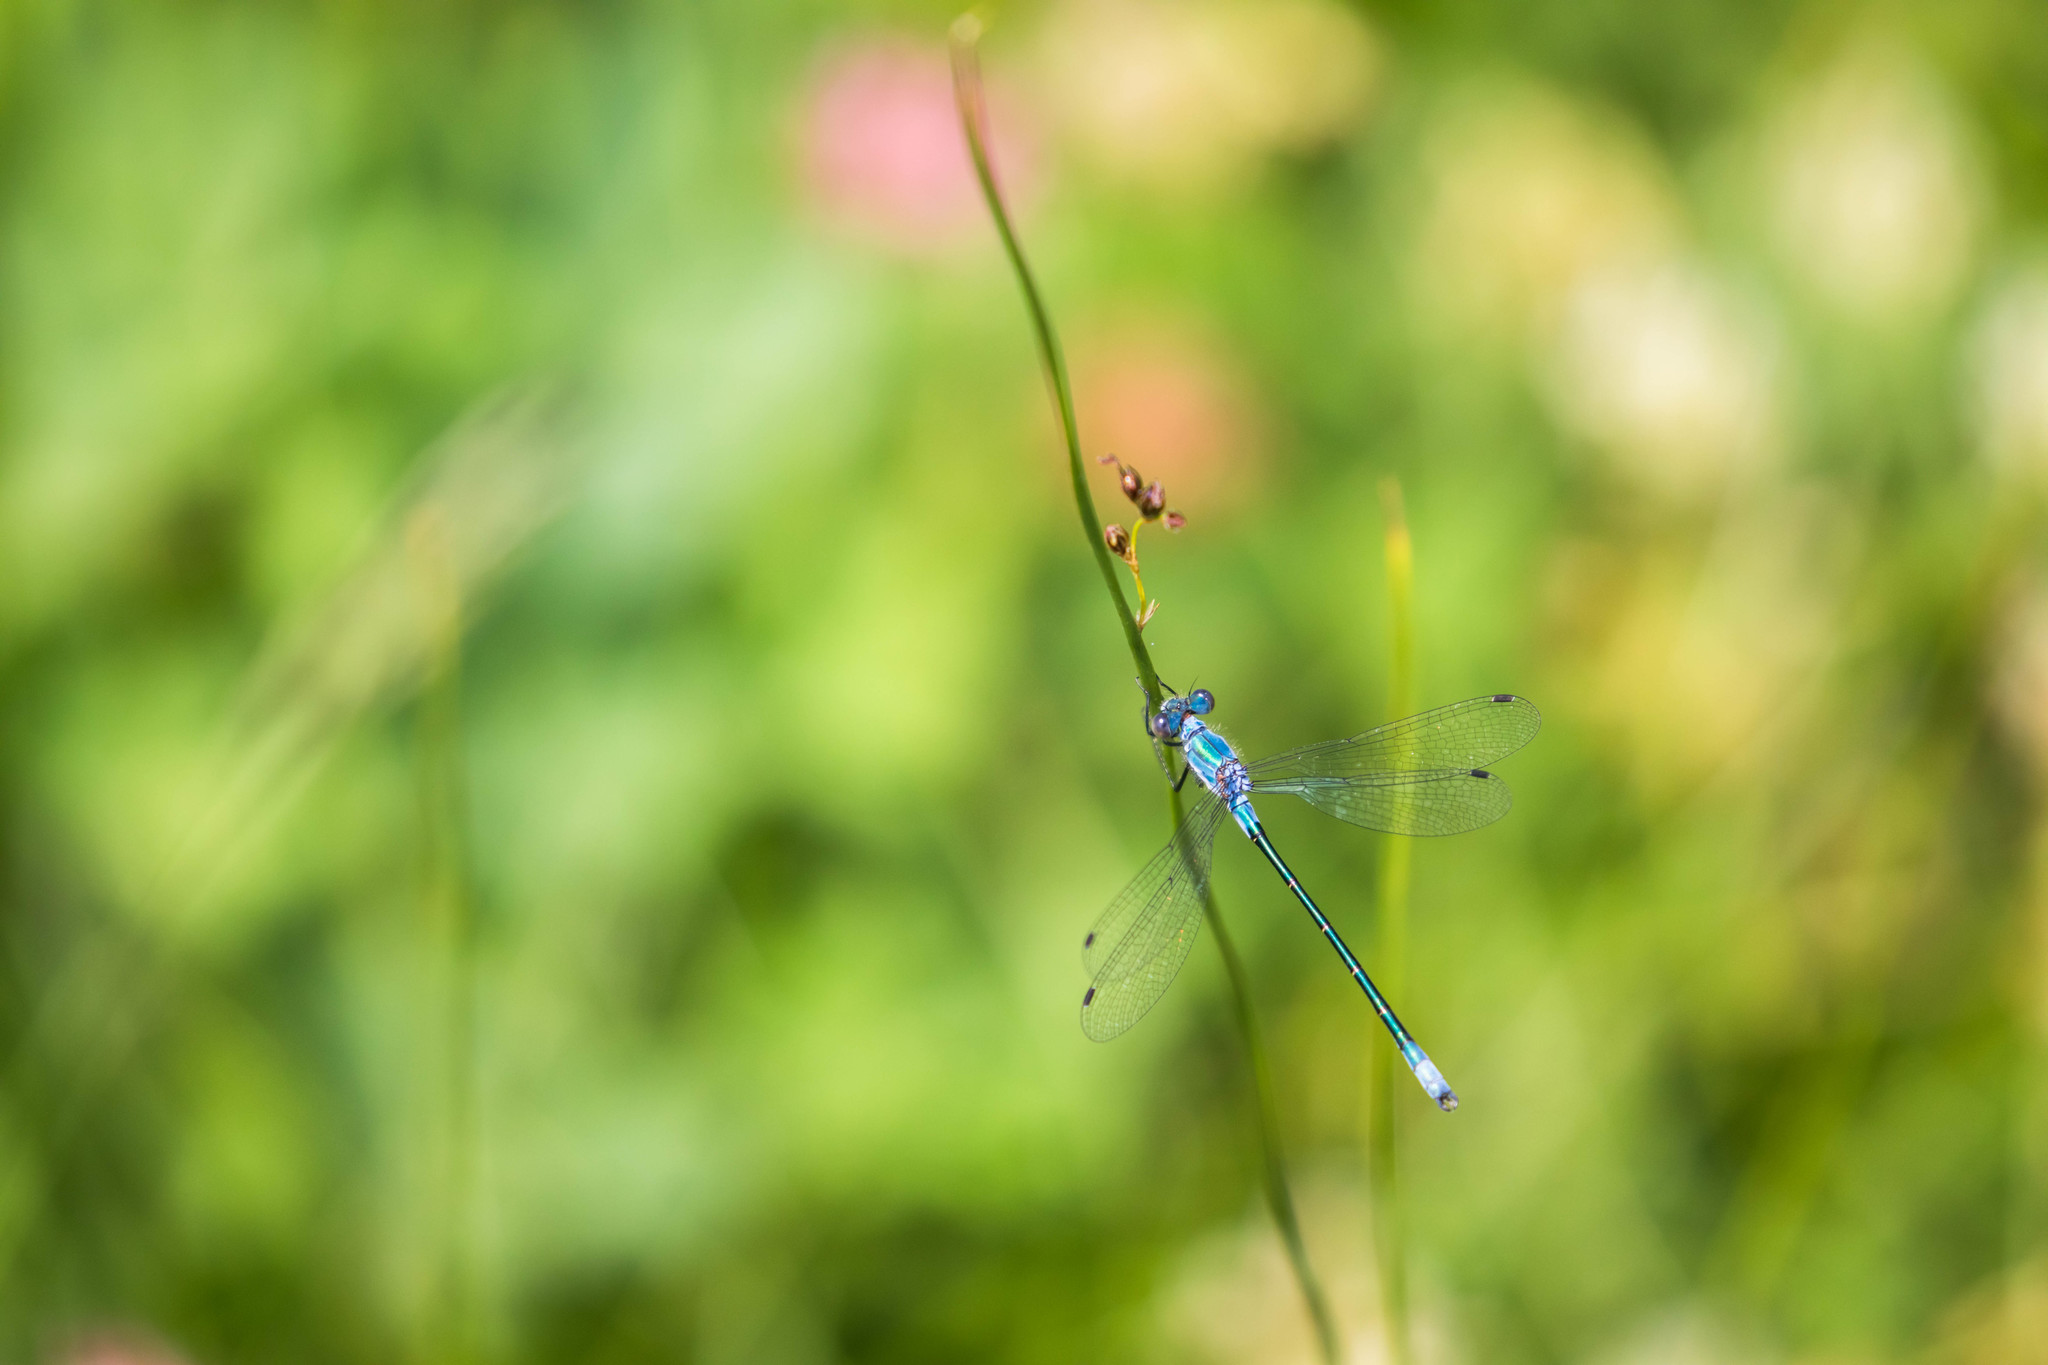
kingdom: Animalia
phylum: Arthropoda
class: Insecta
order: Odonata
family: Lestidae
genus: Lestes
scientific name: Lestes dryas
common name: Scarce emerald damselfly
